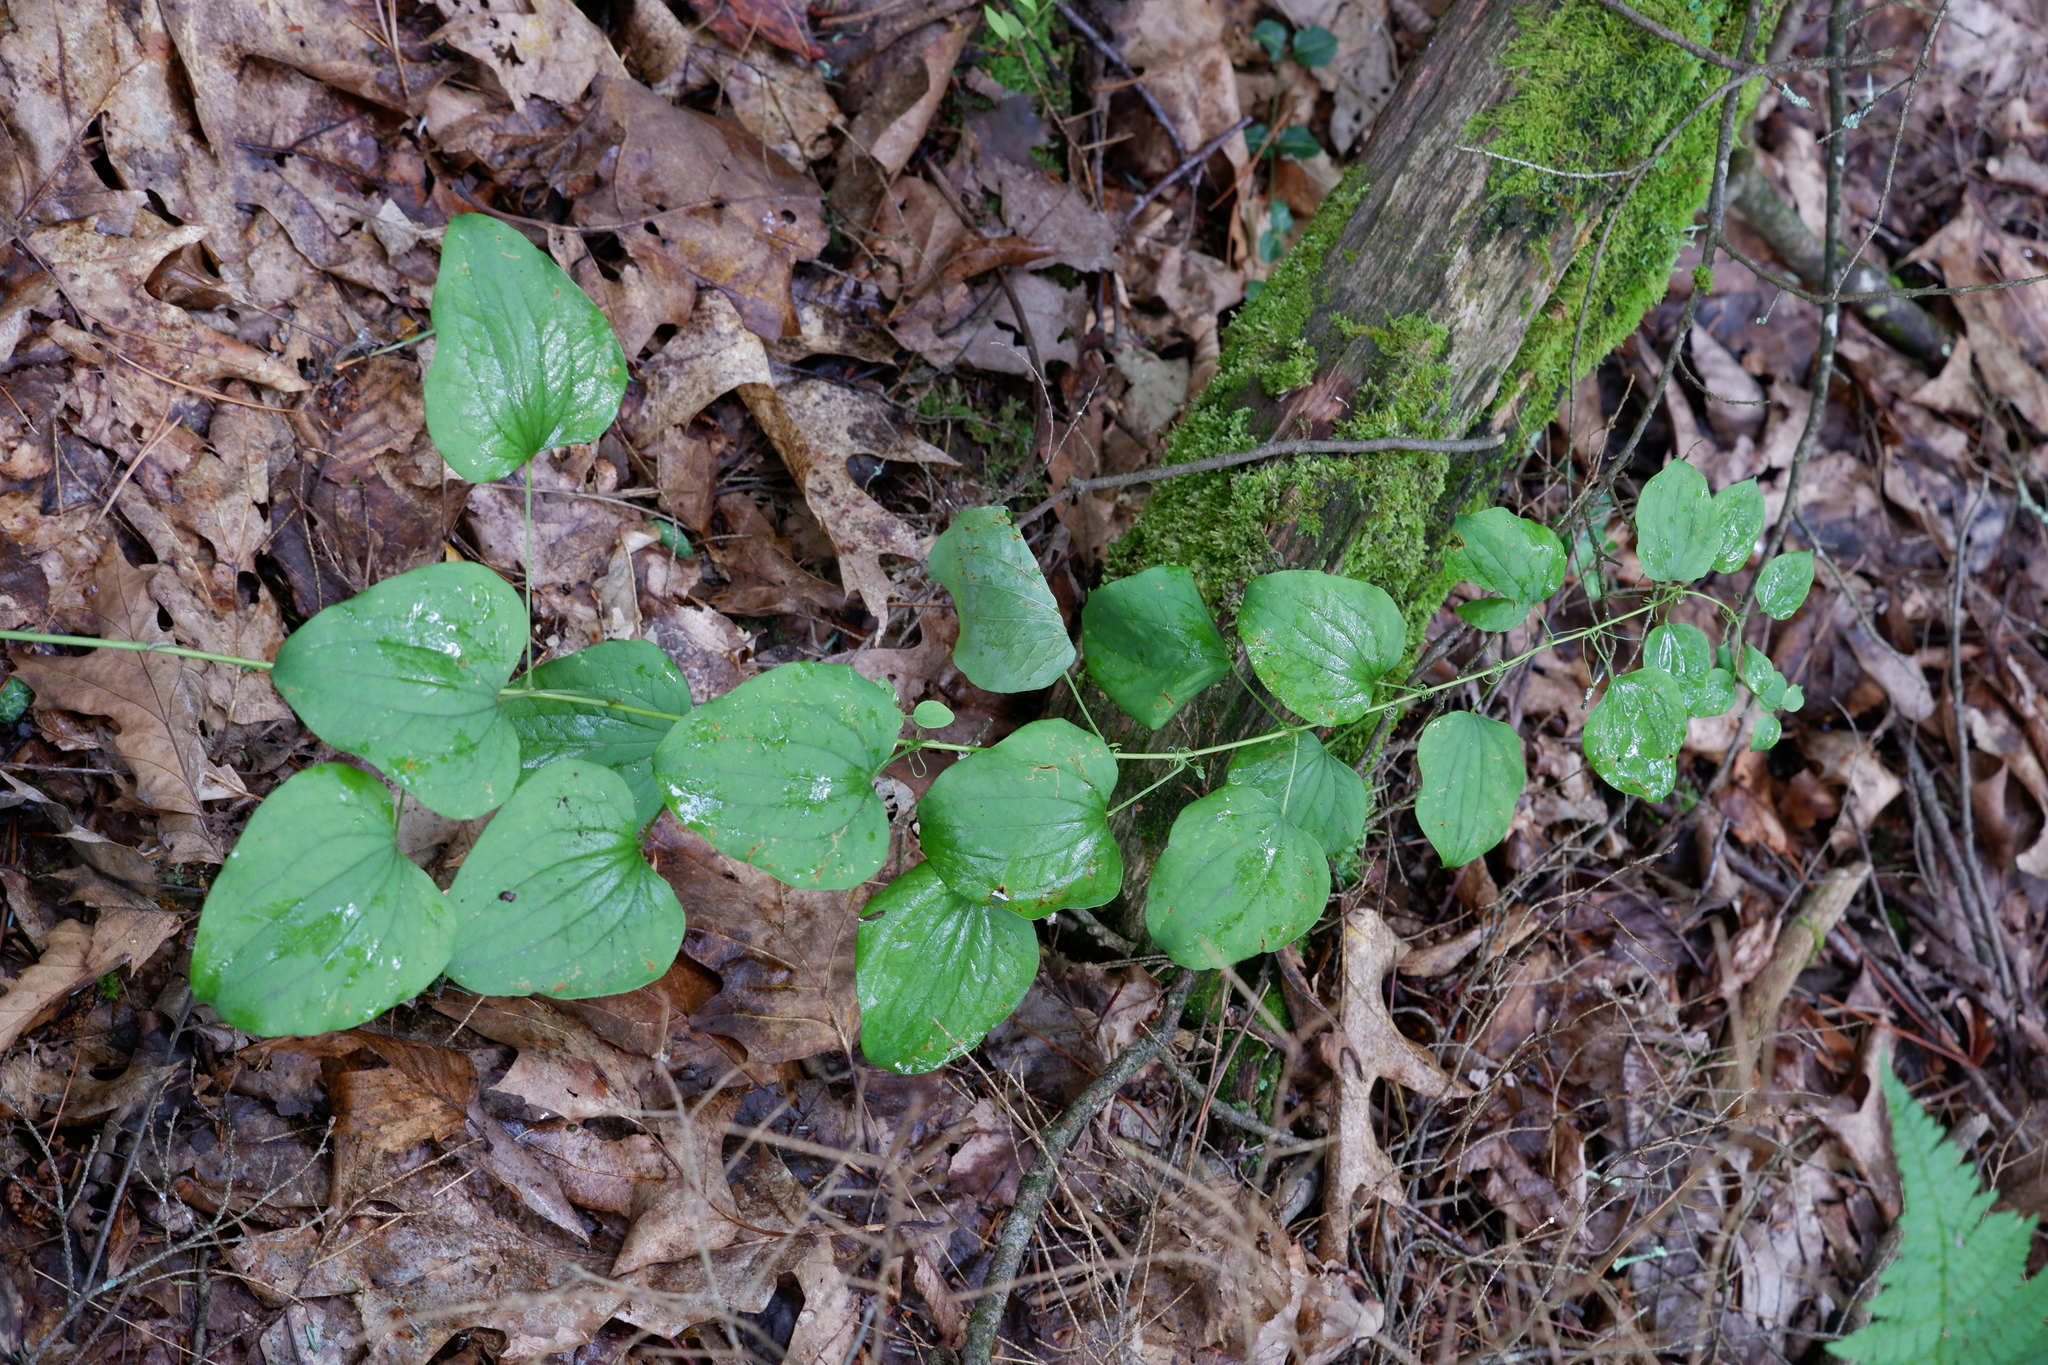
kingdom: Plantae
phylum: Tracheophyta
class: Liliopsida
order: Liliales
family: Smilacaceae
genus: Smilax
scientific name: Smilax herbacea
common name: Jacob's-ladder
